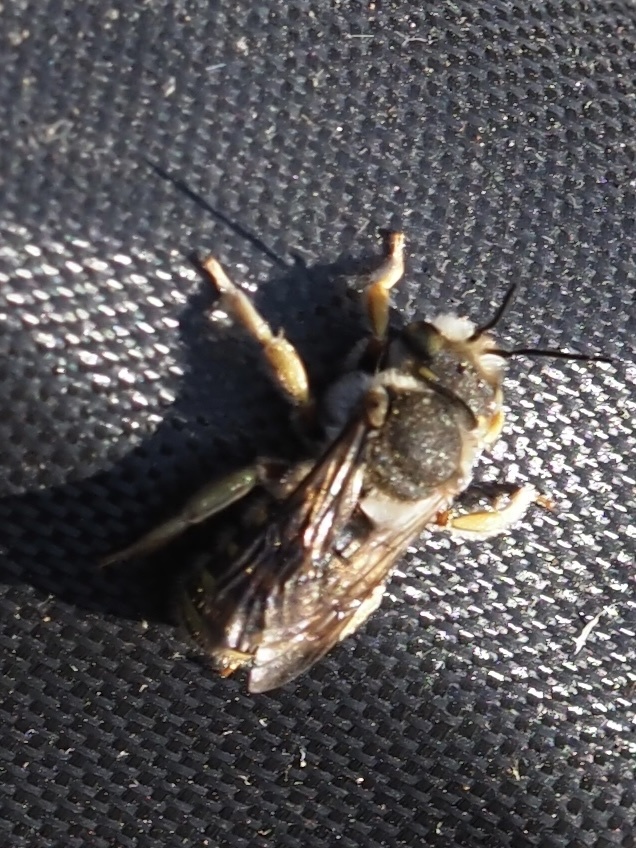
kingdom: Animalia
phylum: Arthropoda
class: Insecta
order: Hymenoptera
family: Megachilidae
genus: Anthidium
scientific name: Anthidium manicatum
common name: Wool carder bee
